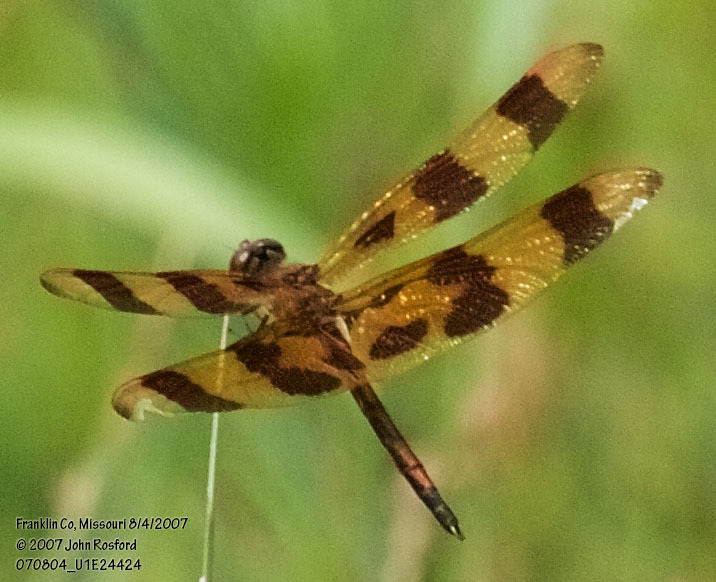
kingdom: Animalia
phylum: Arthropoda
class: Insecta
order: Odonata
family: Libellulidae
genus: Celithemis
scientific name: Celithemis eponina
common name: Halloween pennant
